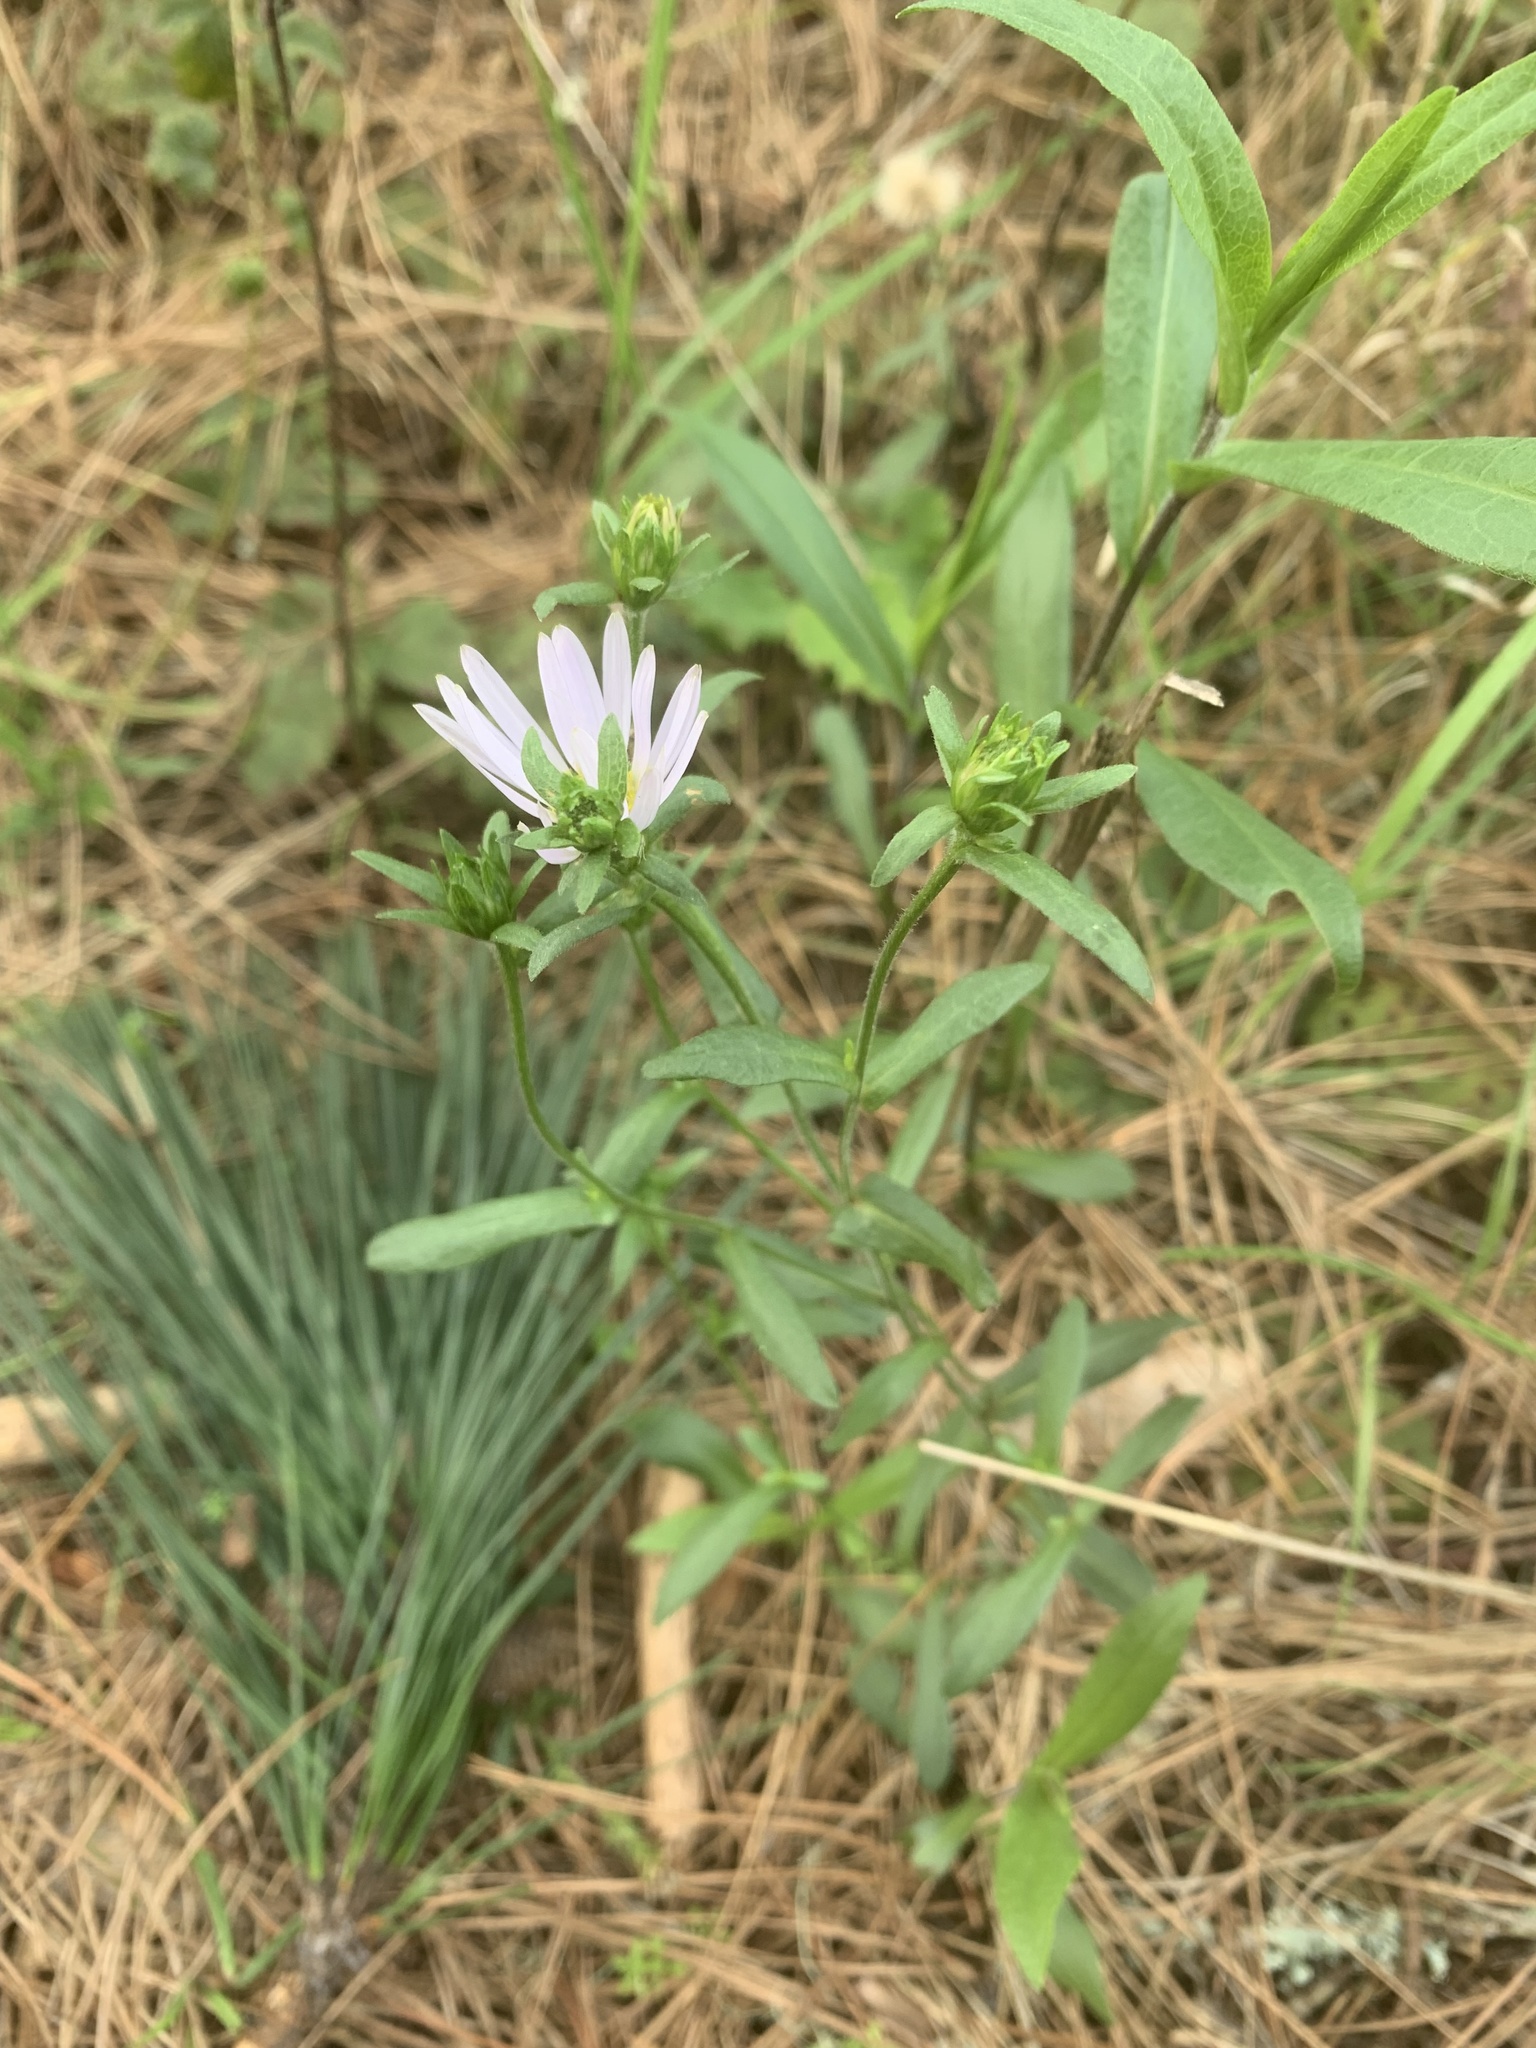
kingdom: Plantae
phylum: Tracheophyta
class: Magnoliopsida
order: Asterales
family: Asteraceae
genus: Symphyotrichum
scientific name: Symphyotrichum chilense
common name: Pacific aster
